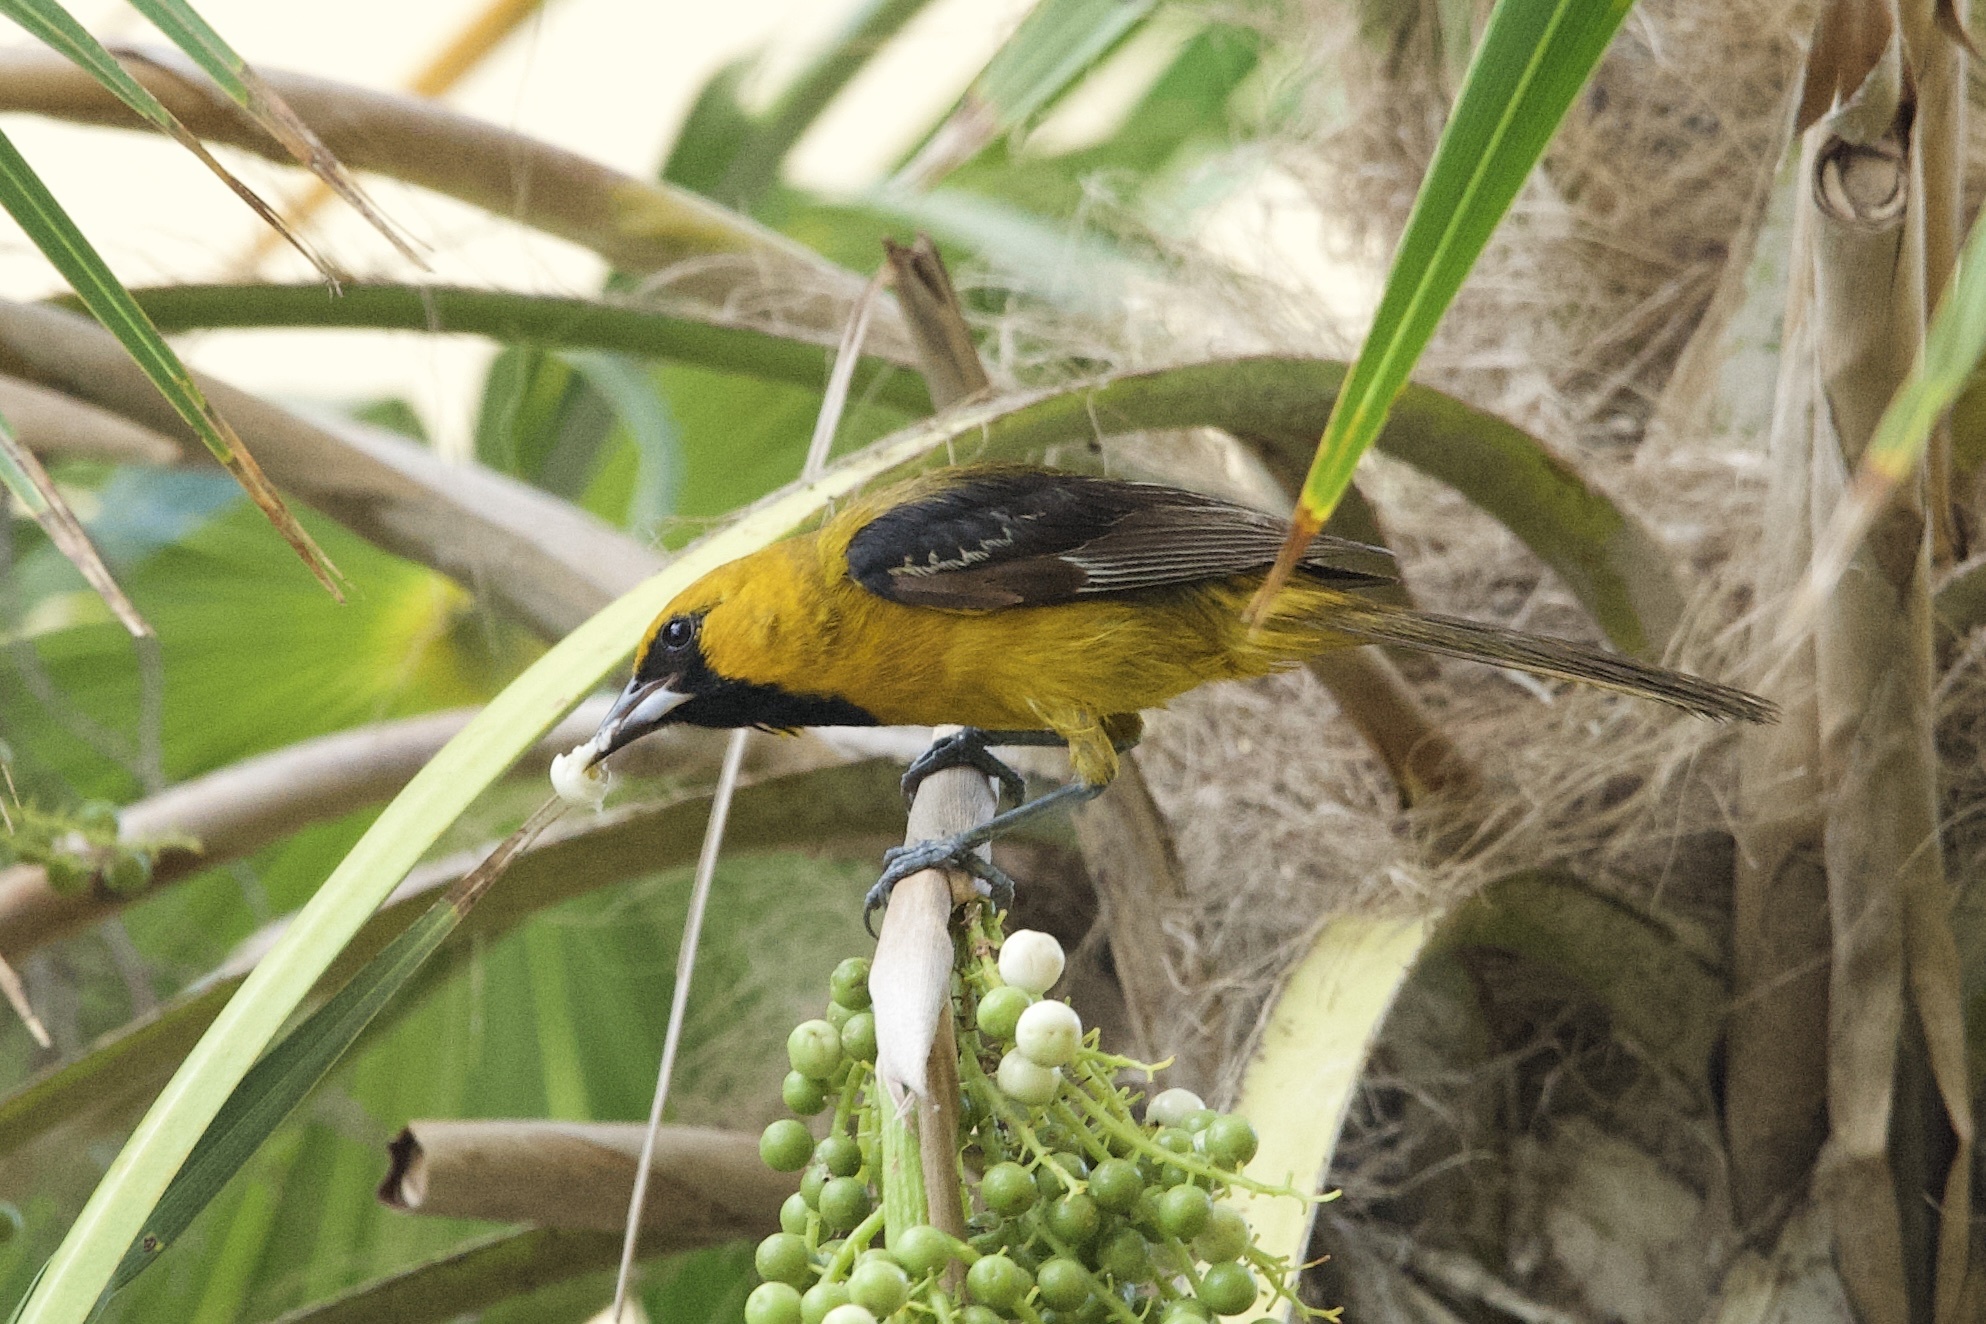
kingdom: Animalia
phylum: Chordata
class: Aves
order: Passeriformes
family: Icteridae
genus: Icterus
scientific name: Icterus cucullatus
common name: Hooded oriole
